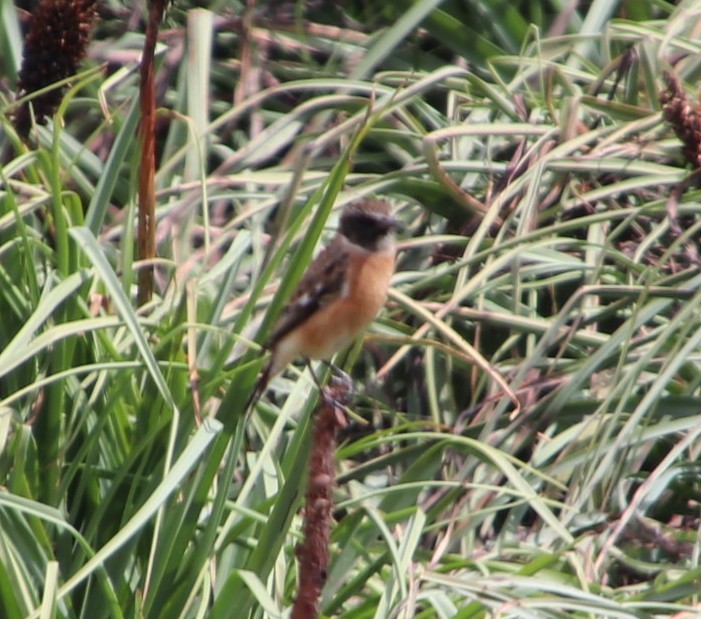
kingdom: Animalia
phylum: Chordata
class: Aves
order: Passeriformes
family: Muscicapidae
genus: Saxicola
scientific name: Saxicola torquatus
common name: African stonechat
